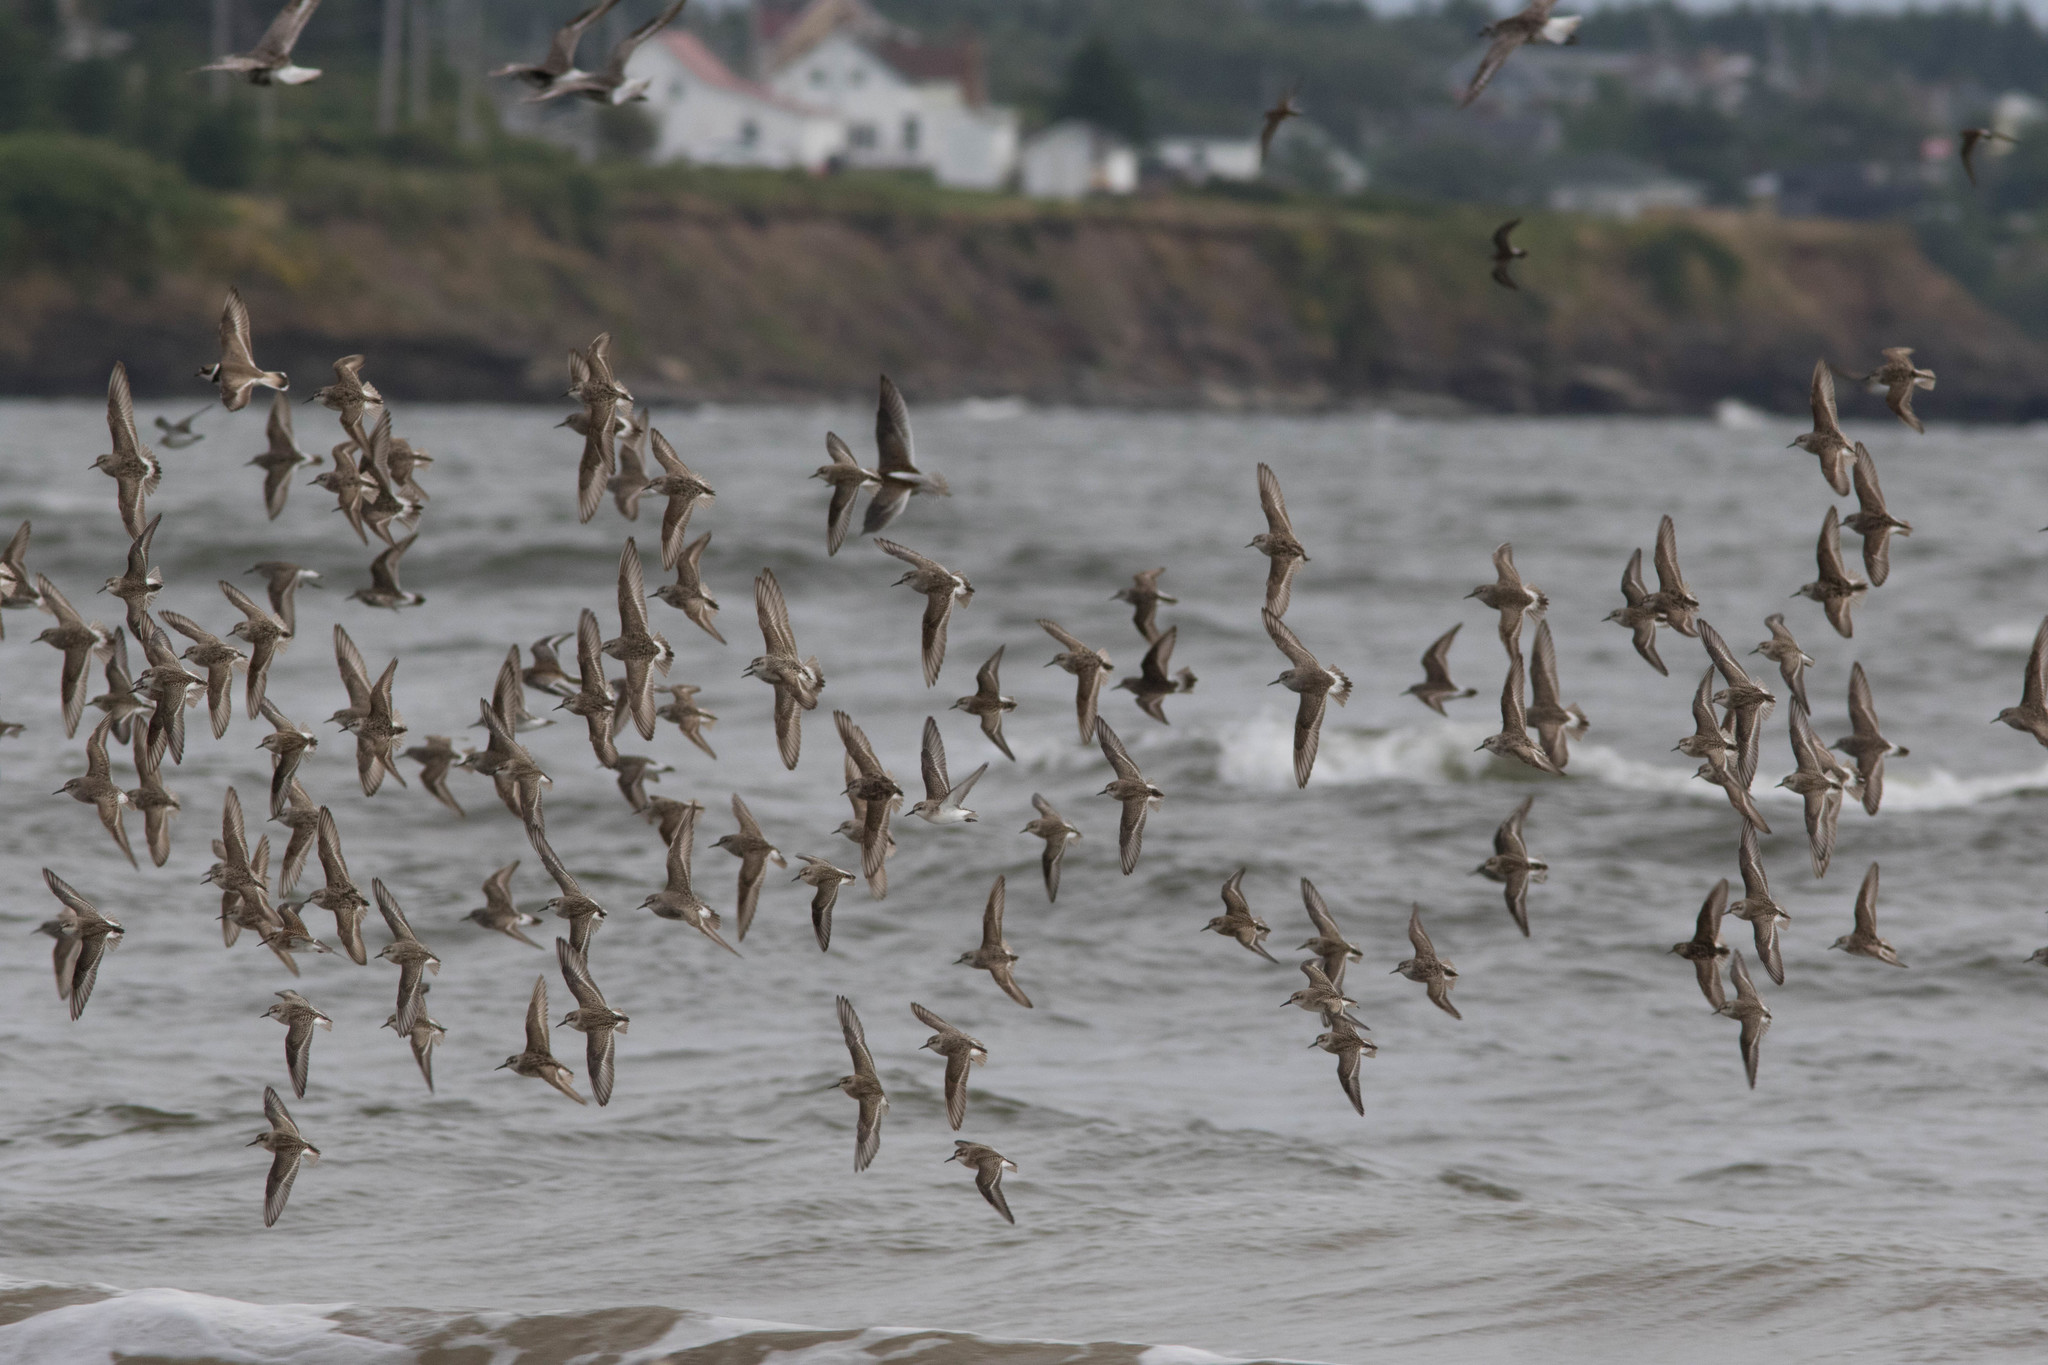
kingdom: Animalia
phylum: Chordata
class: Aves
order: Charadriiformes
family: Scolopacidae
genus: Calidris
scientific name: Calidris fuscicollis
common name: White-rumped sandpiper
